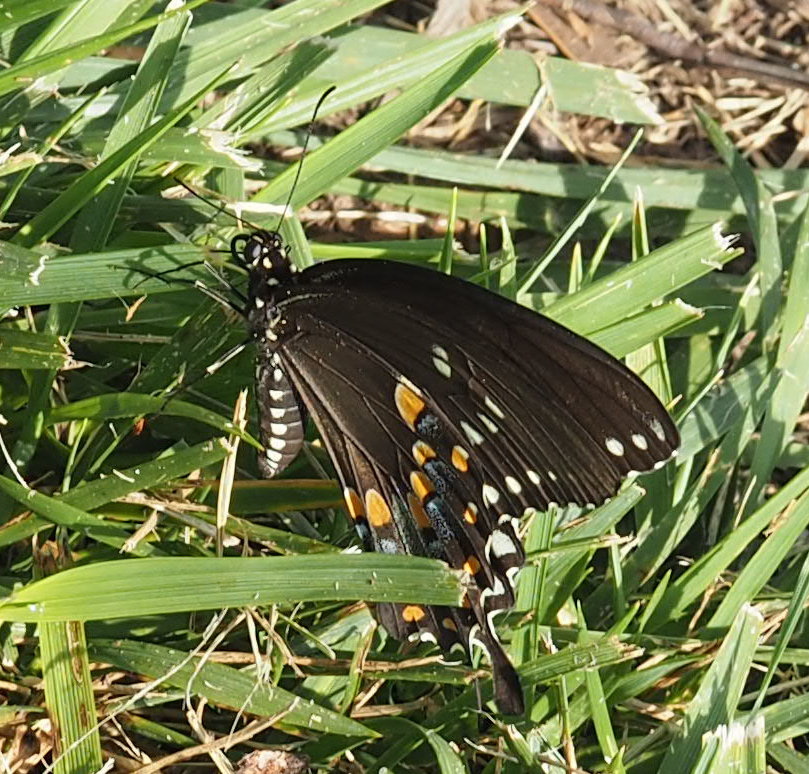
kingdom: Animalia
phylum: Arthropoda
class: Insecta
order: Lepidoptera
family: Papilionidae
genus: Papilio
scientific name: Papilio troilus
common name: Spicebush swallowtail
